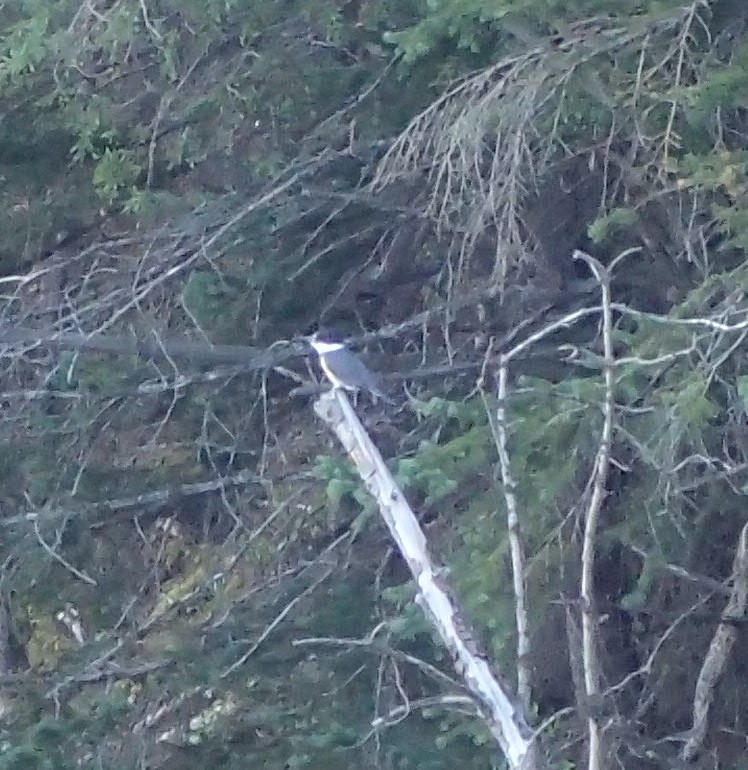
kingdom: Animalia
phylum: Chordata
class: Aves
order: Coraciiformes
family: Alcedinidae
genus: Megaceryle
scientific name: Megaceryle alcyon
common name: Belted kingfisher
